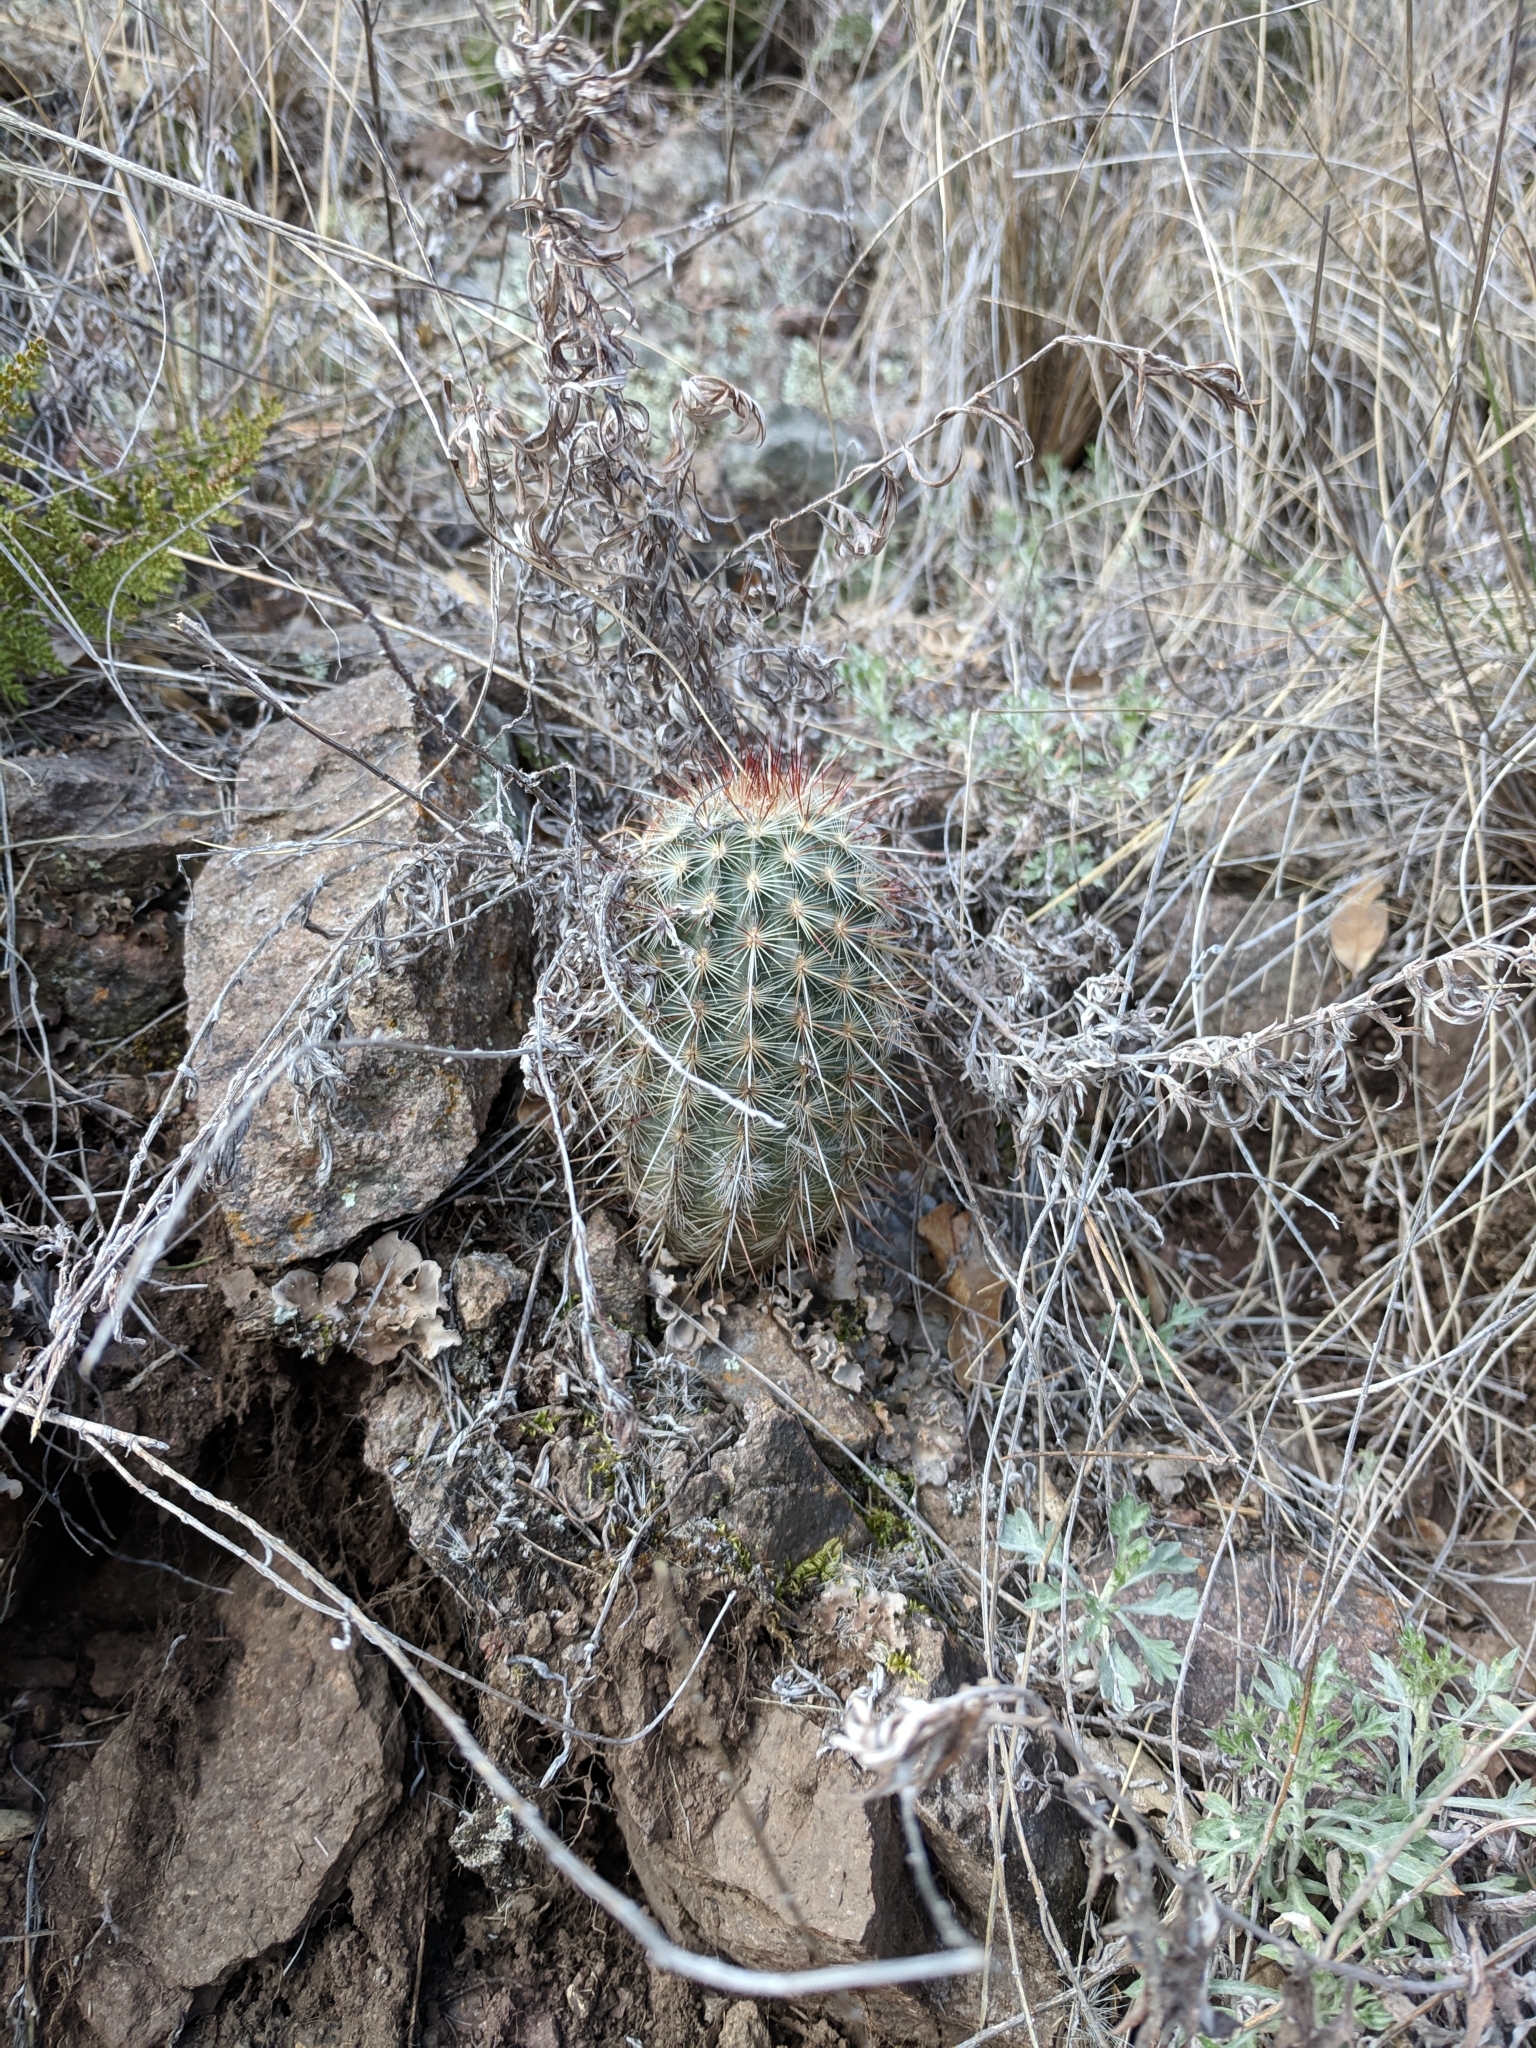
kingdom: Plantae
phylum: Tracheophyta
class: Magnoliopsida
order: Caryophyllales
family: Cactaceae
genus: Echinocereus
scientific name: Echinocereus
